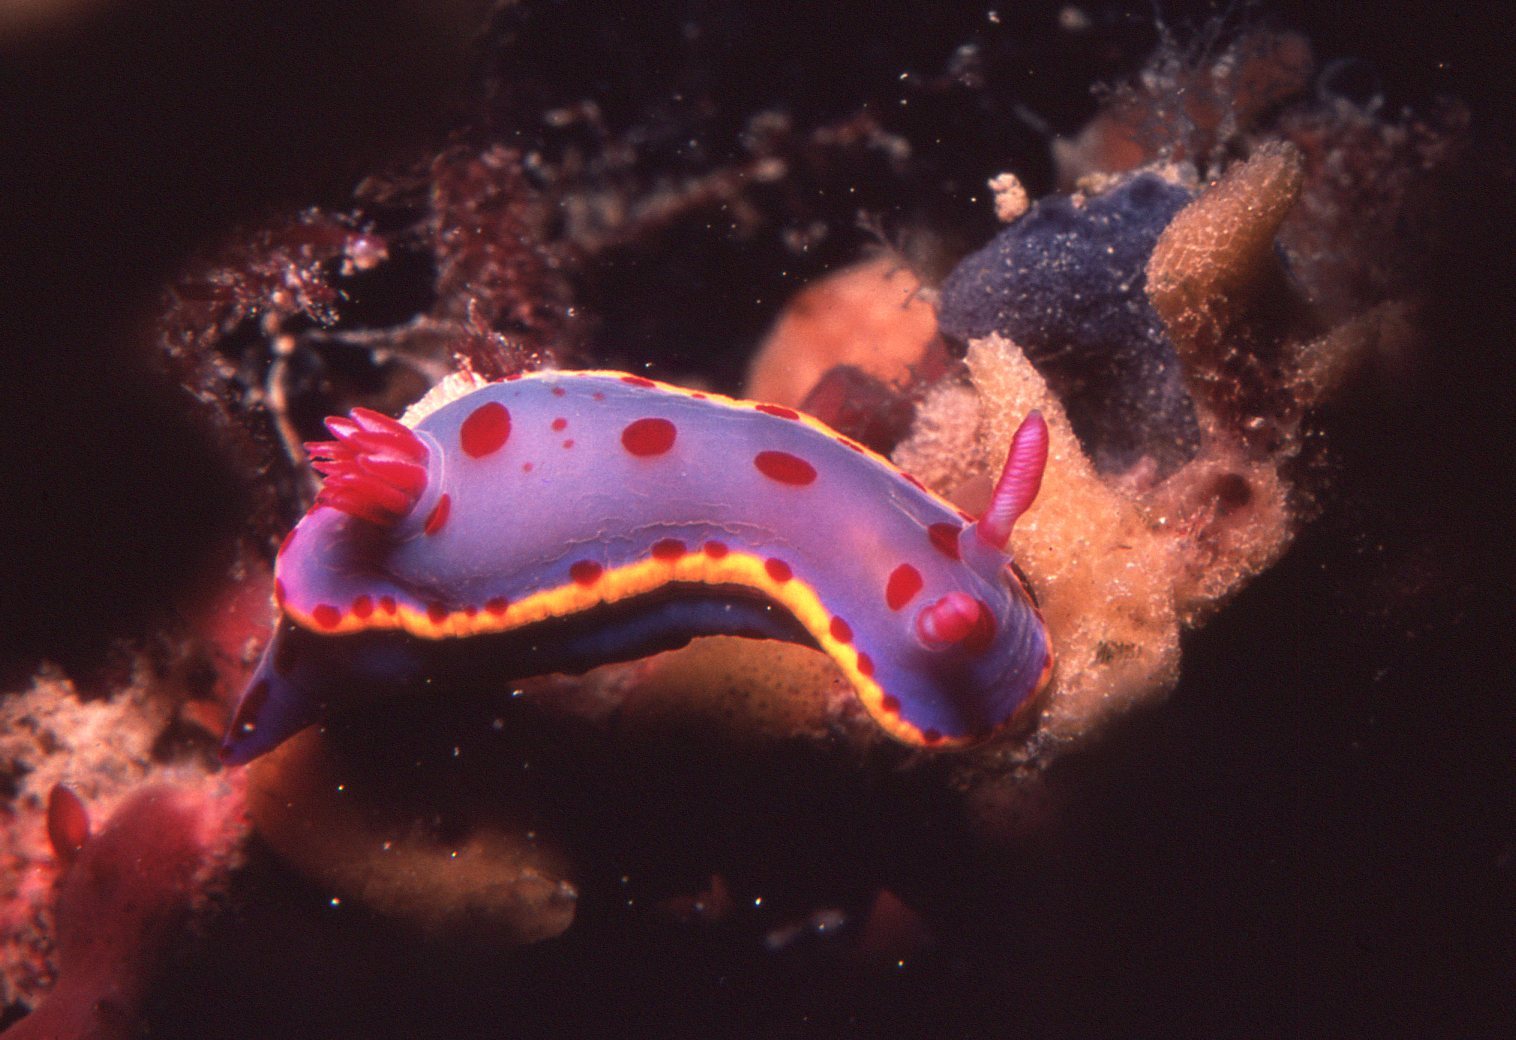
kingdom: Animalia
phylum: Mollusca
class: Gastropoda
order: Nudibranchia
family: Chromodorididae
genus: Hypselodoris
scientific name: Hypselodoris bennetti
